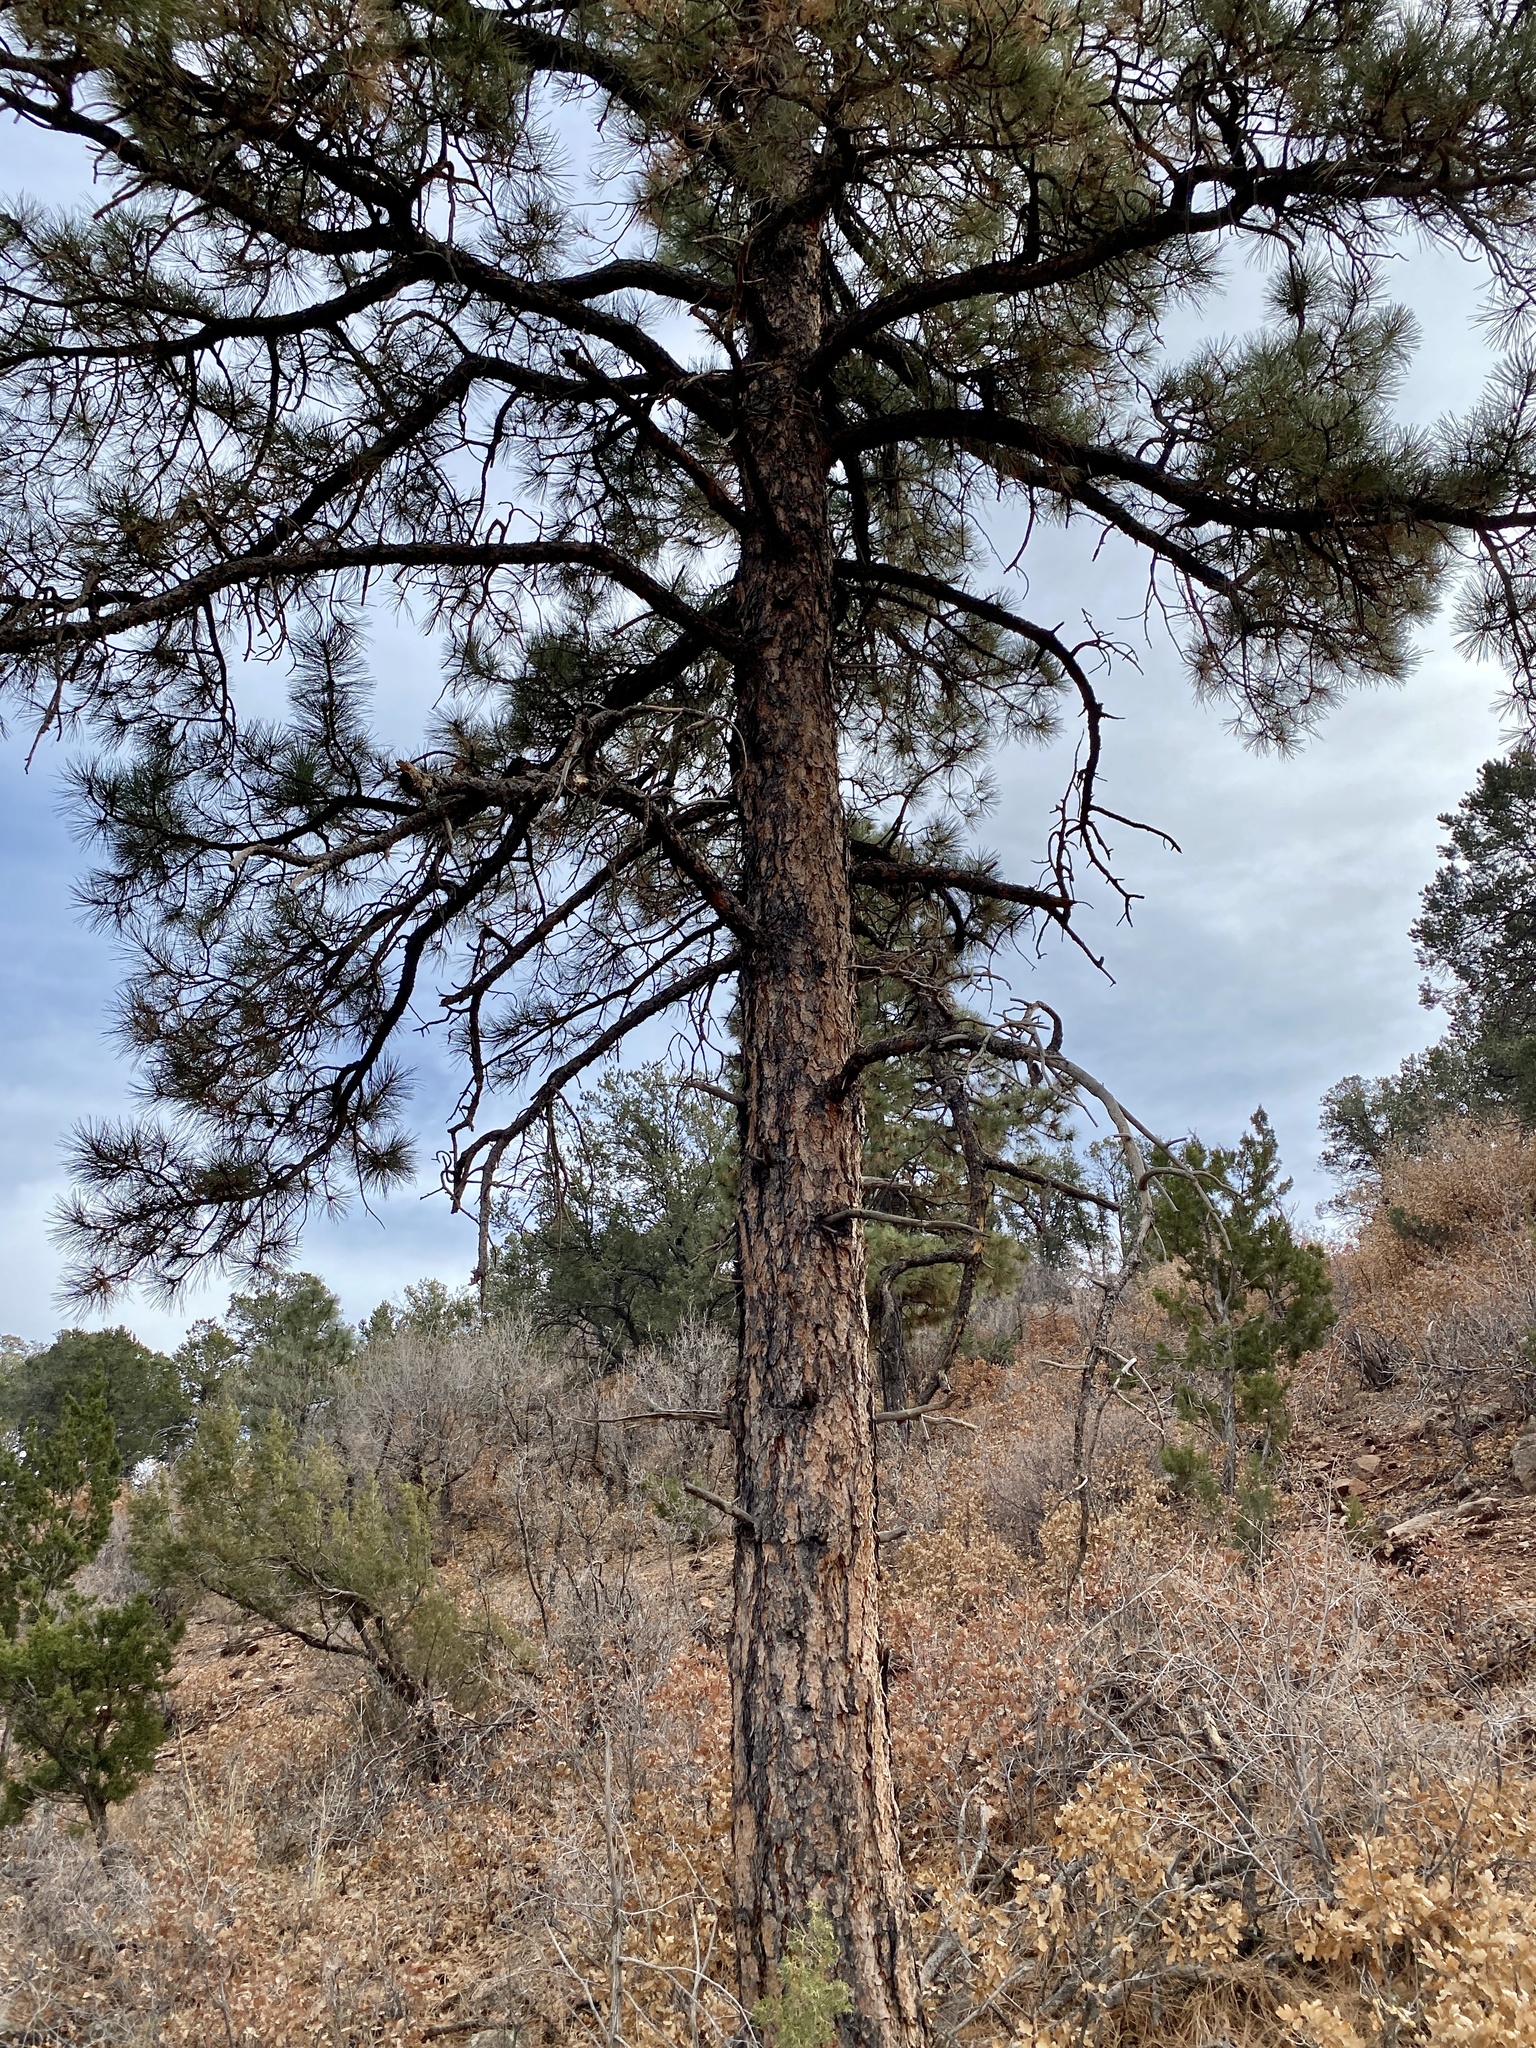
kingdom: Plantae
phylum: Tracheophyta
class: Pinopsida
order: Pinales
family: Pinaceae
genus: Pinus
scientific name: Pinus ponderosa
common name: Western yellow-pine
